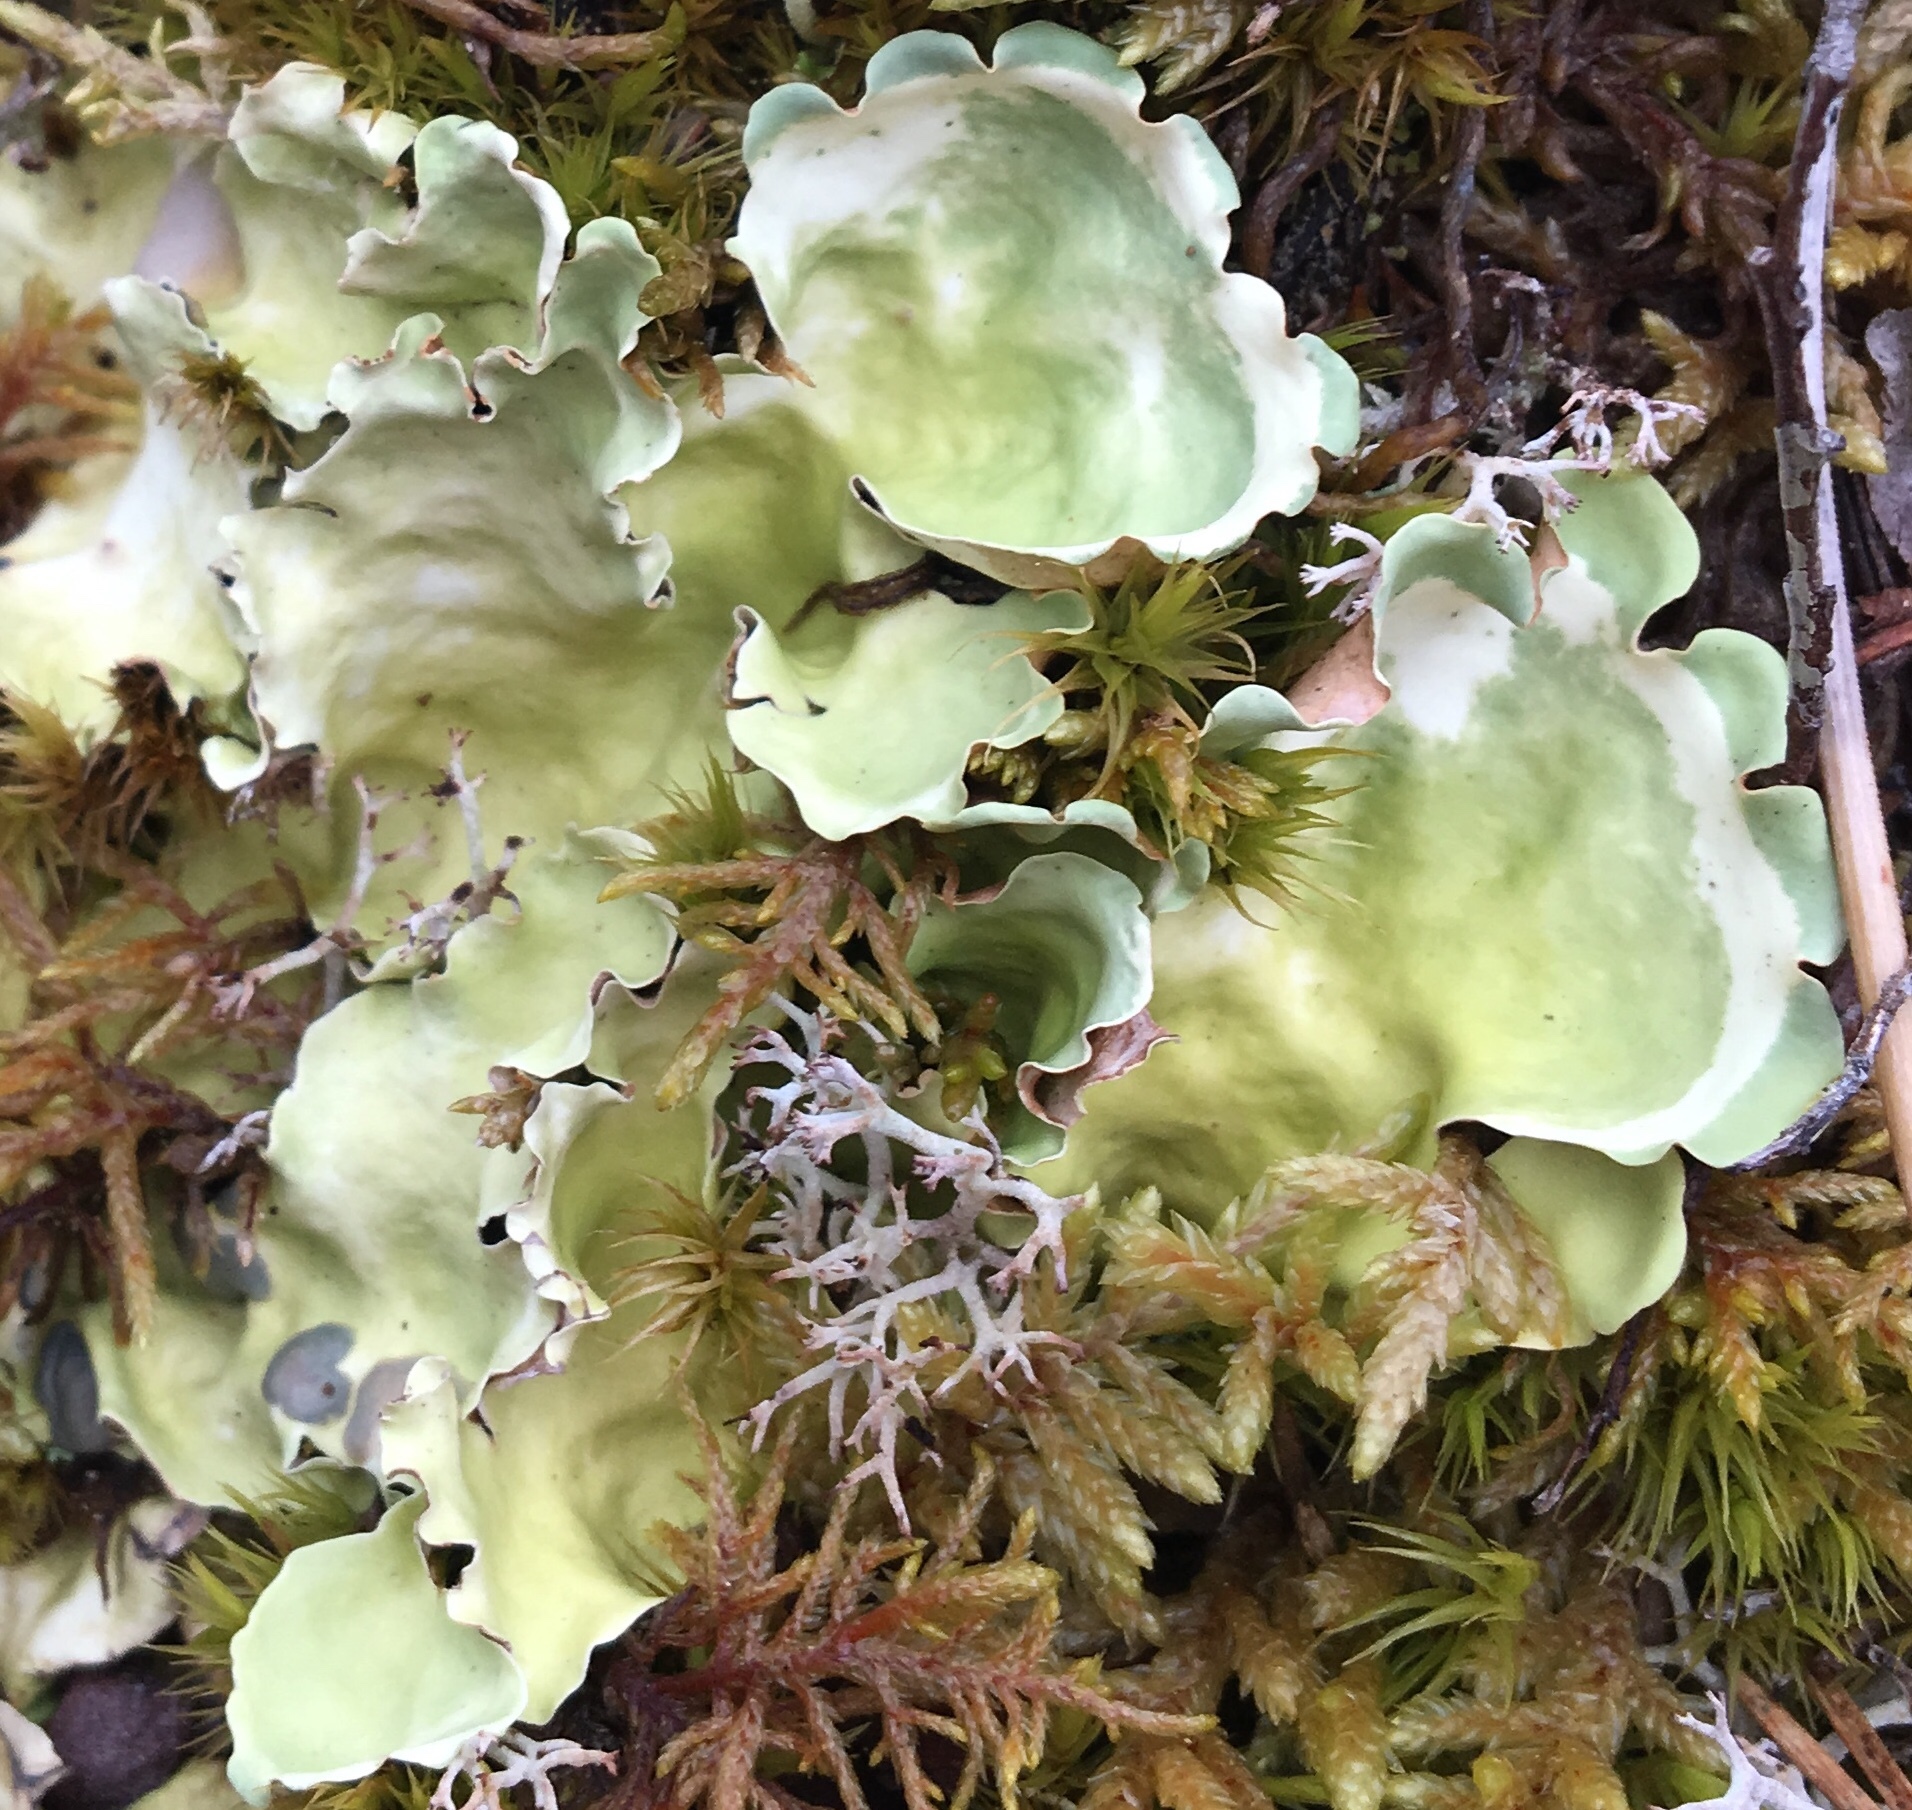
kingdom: Fungi
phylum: Ascomycota
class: Lecanoromycetes
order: Peltigerales
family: Nephromataceae
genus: Nephroma
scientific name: Nephroma arcticum
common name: Arctic kidney-lichen
